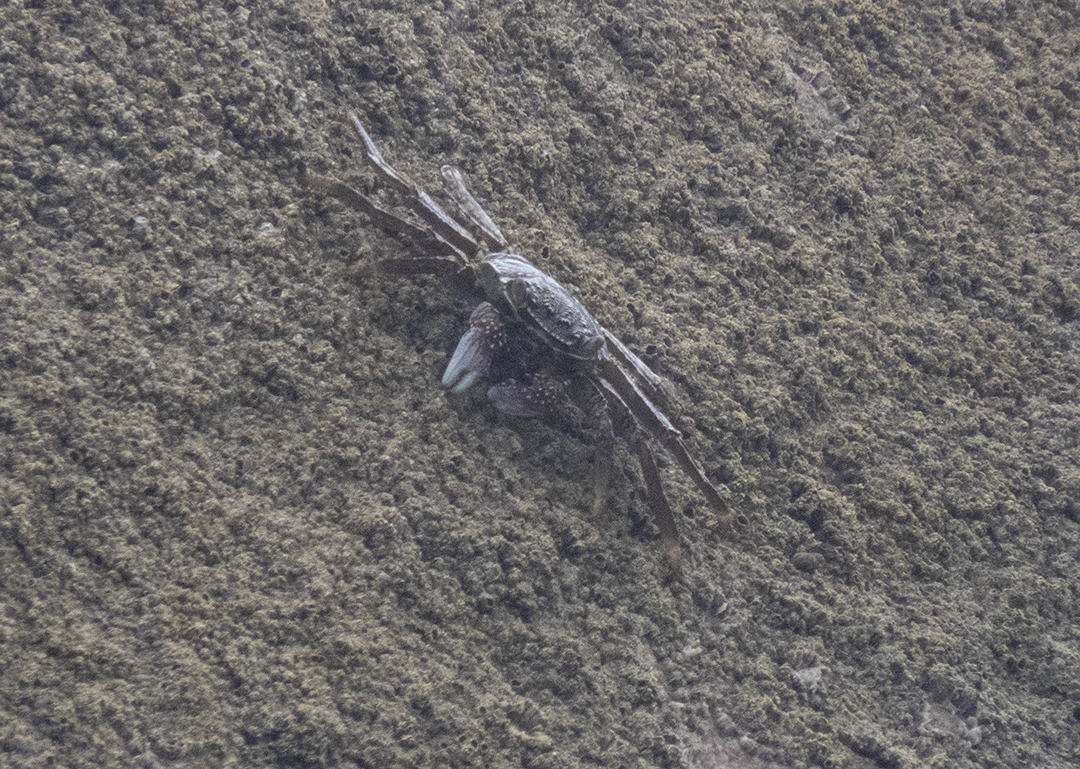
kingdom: Animalia
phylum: Arthropoda
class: Malacostraca
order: Decapoda
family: Grapsidae
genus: Grapsus
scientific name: Grapsus albolineatus
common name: Mottled lightfoot crab
